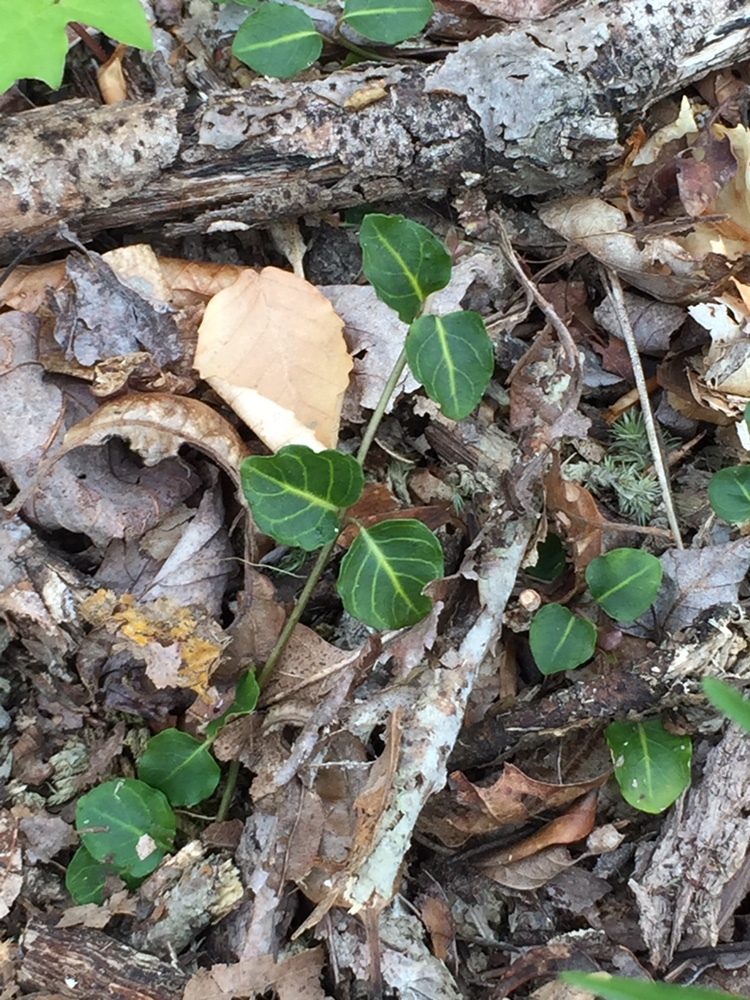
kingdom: Plantae
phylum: Tracheophyta
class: Magnoliopsida
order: Gentianales
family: Rubiaceae
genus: Mitchella
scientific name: Mitchella repens
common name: Partridge-berry
